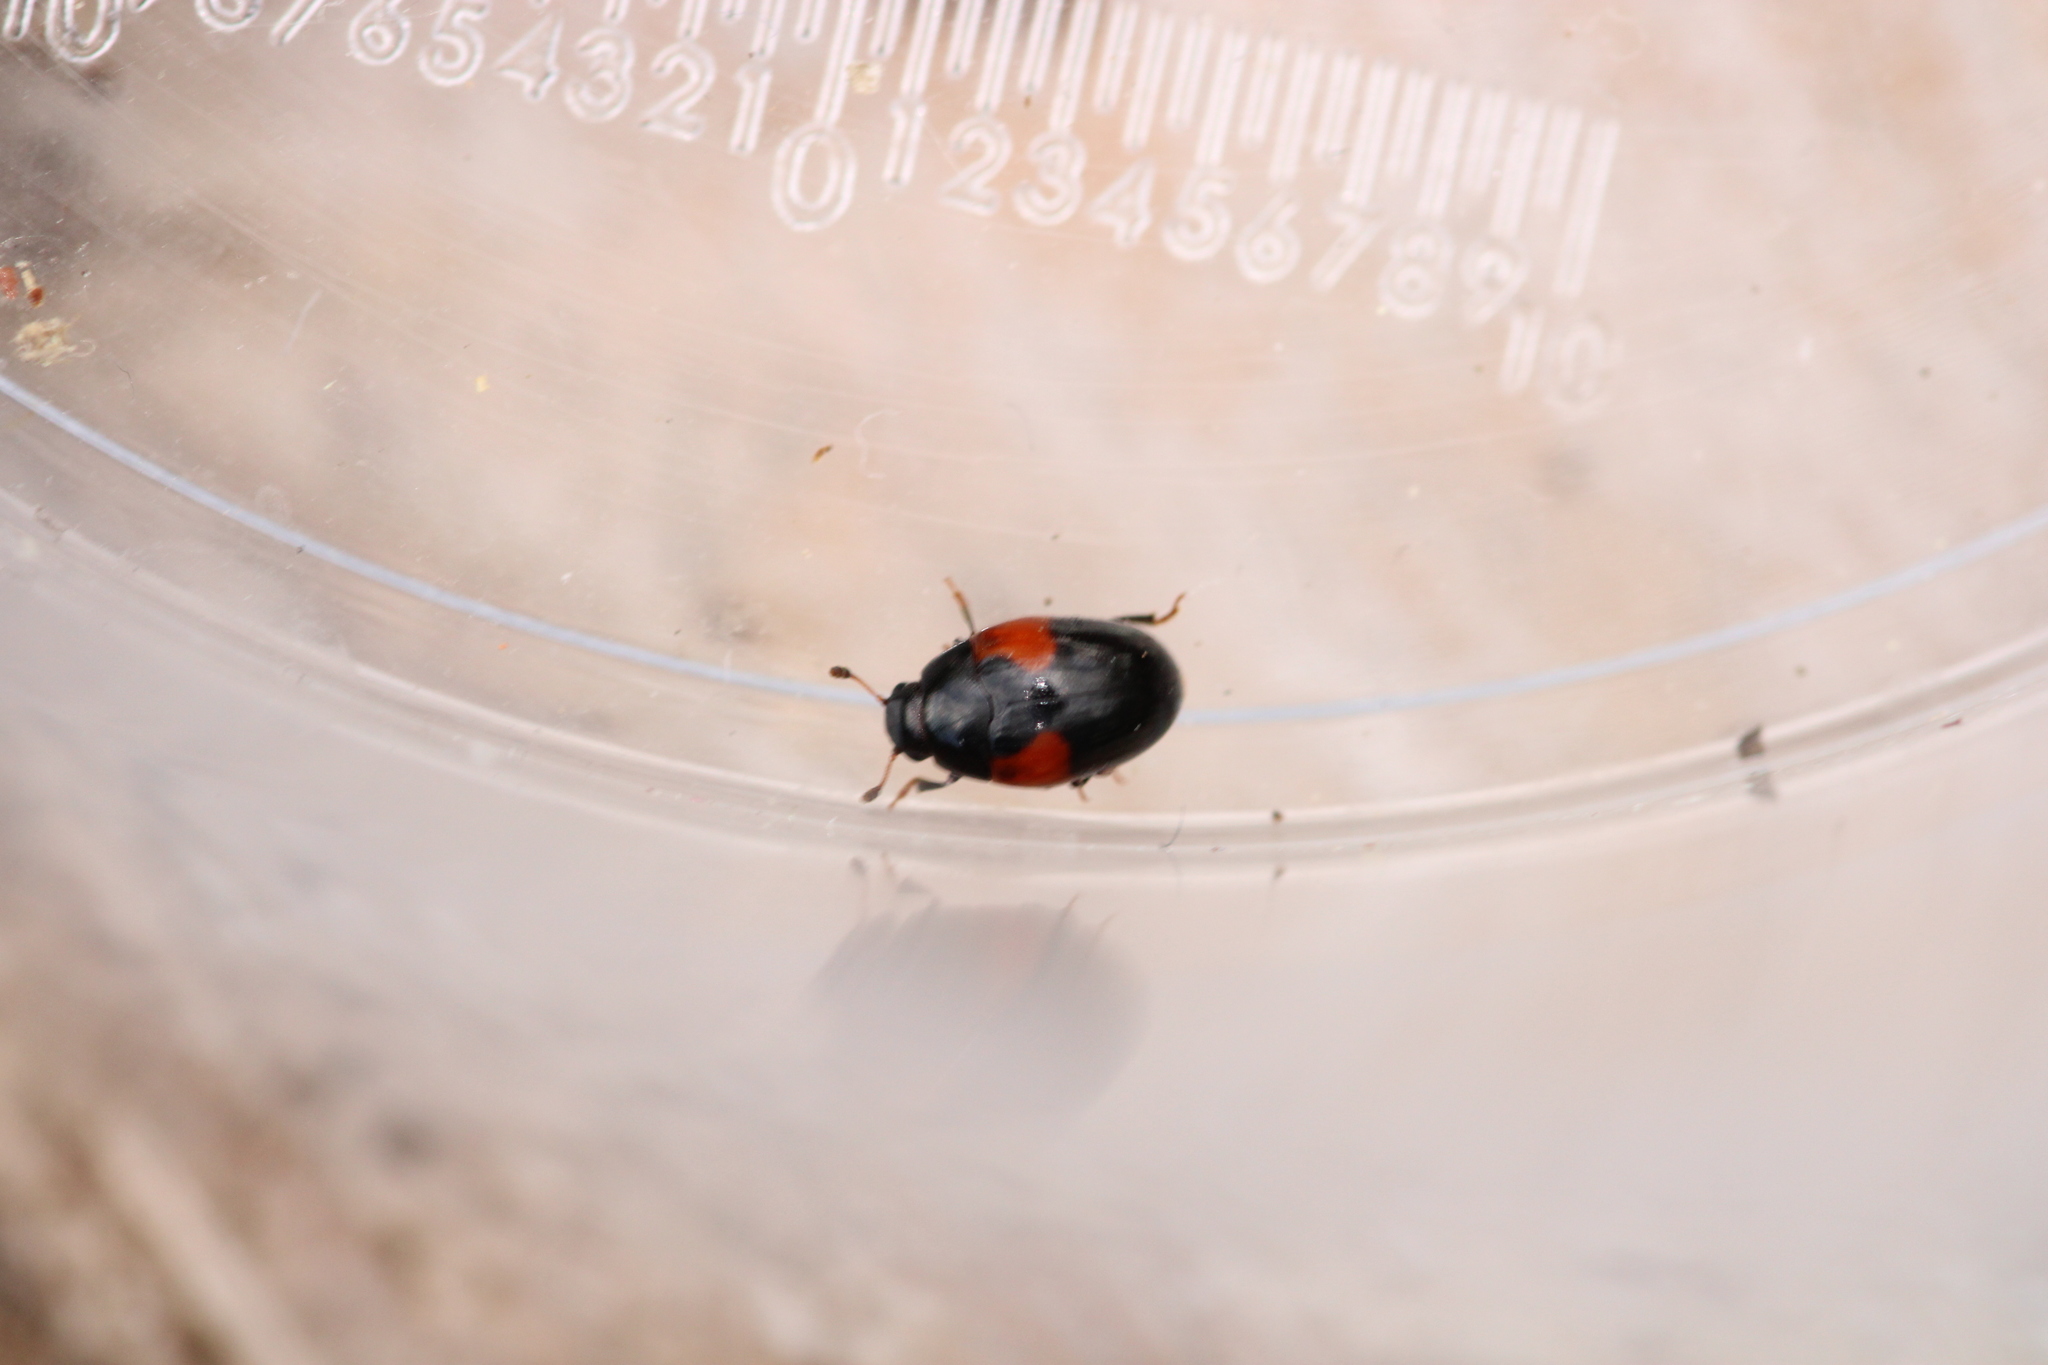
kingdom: Animalia
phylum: Arthropoda
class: Insecta
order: Coleoptera
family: Erotylidae
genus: Tritoma
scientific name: Tritoma bipustulata
